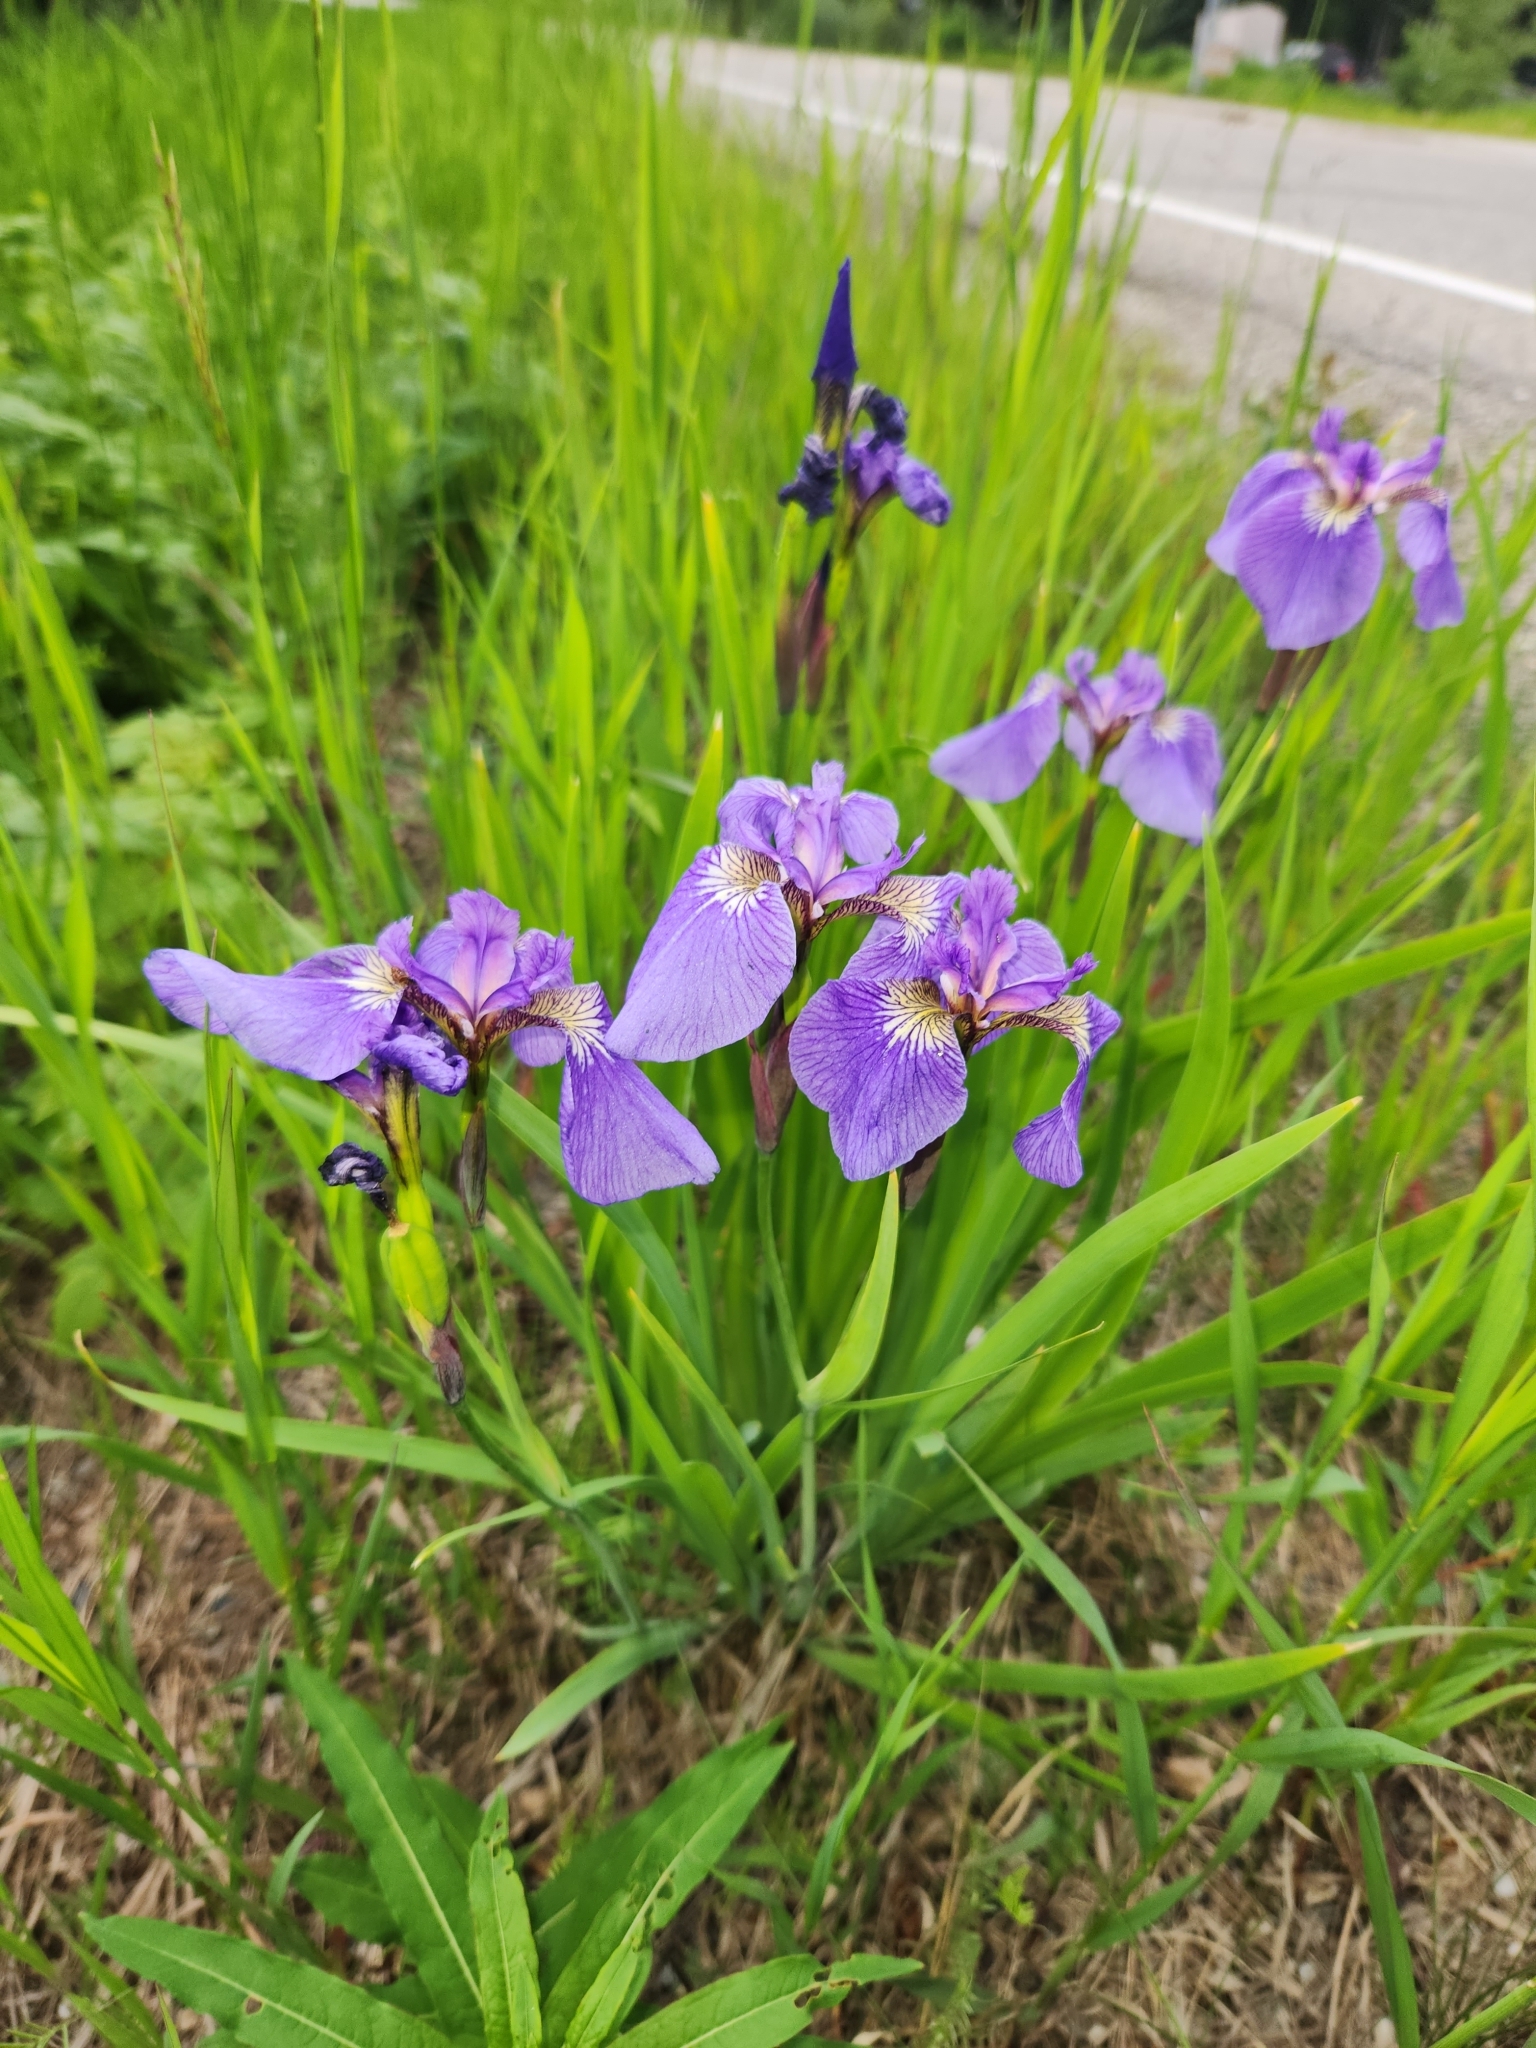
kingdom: Plantae
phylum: Tracheophyta
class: Liliopsida
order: Asparagales
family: Iridaceae
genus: Iris
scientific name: Iris setosa
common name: Arctic blue flag
